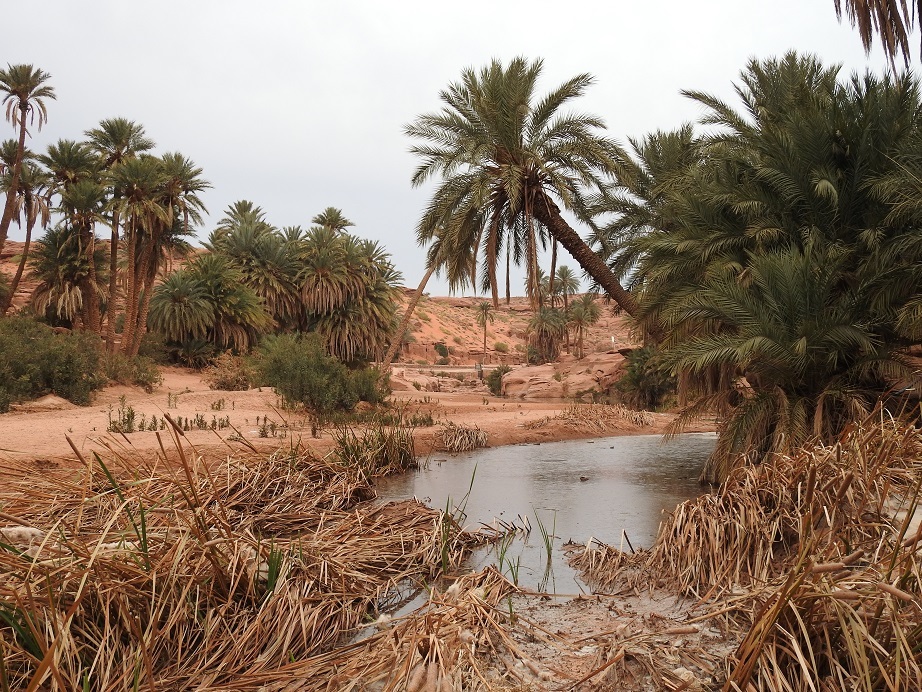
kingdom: Plantae
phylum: Tracheophyta
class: Liliopsida
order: Arecales
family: Arecaceae
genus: Phoenix
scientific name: Phoenix dactylifera
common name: Date palm
